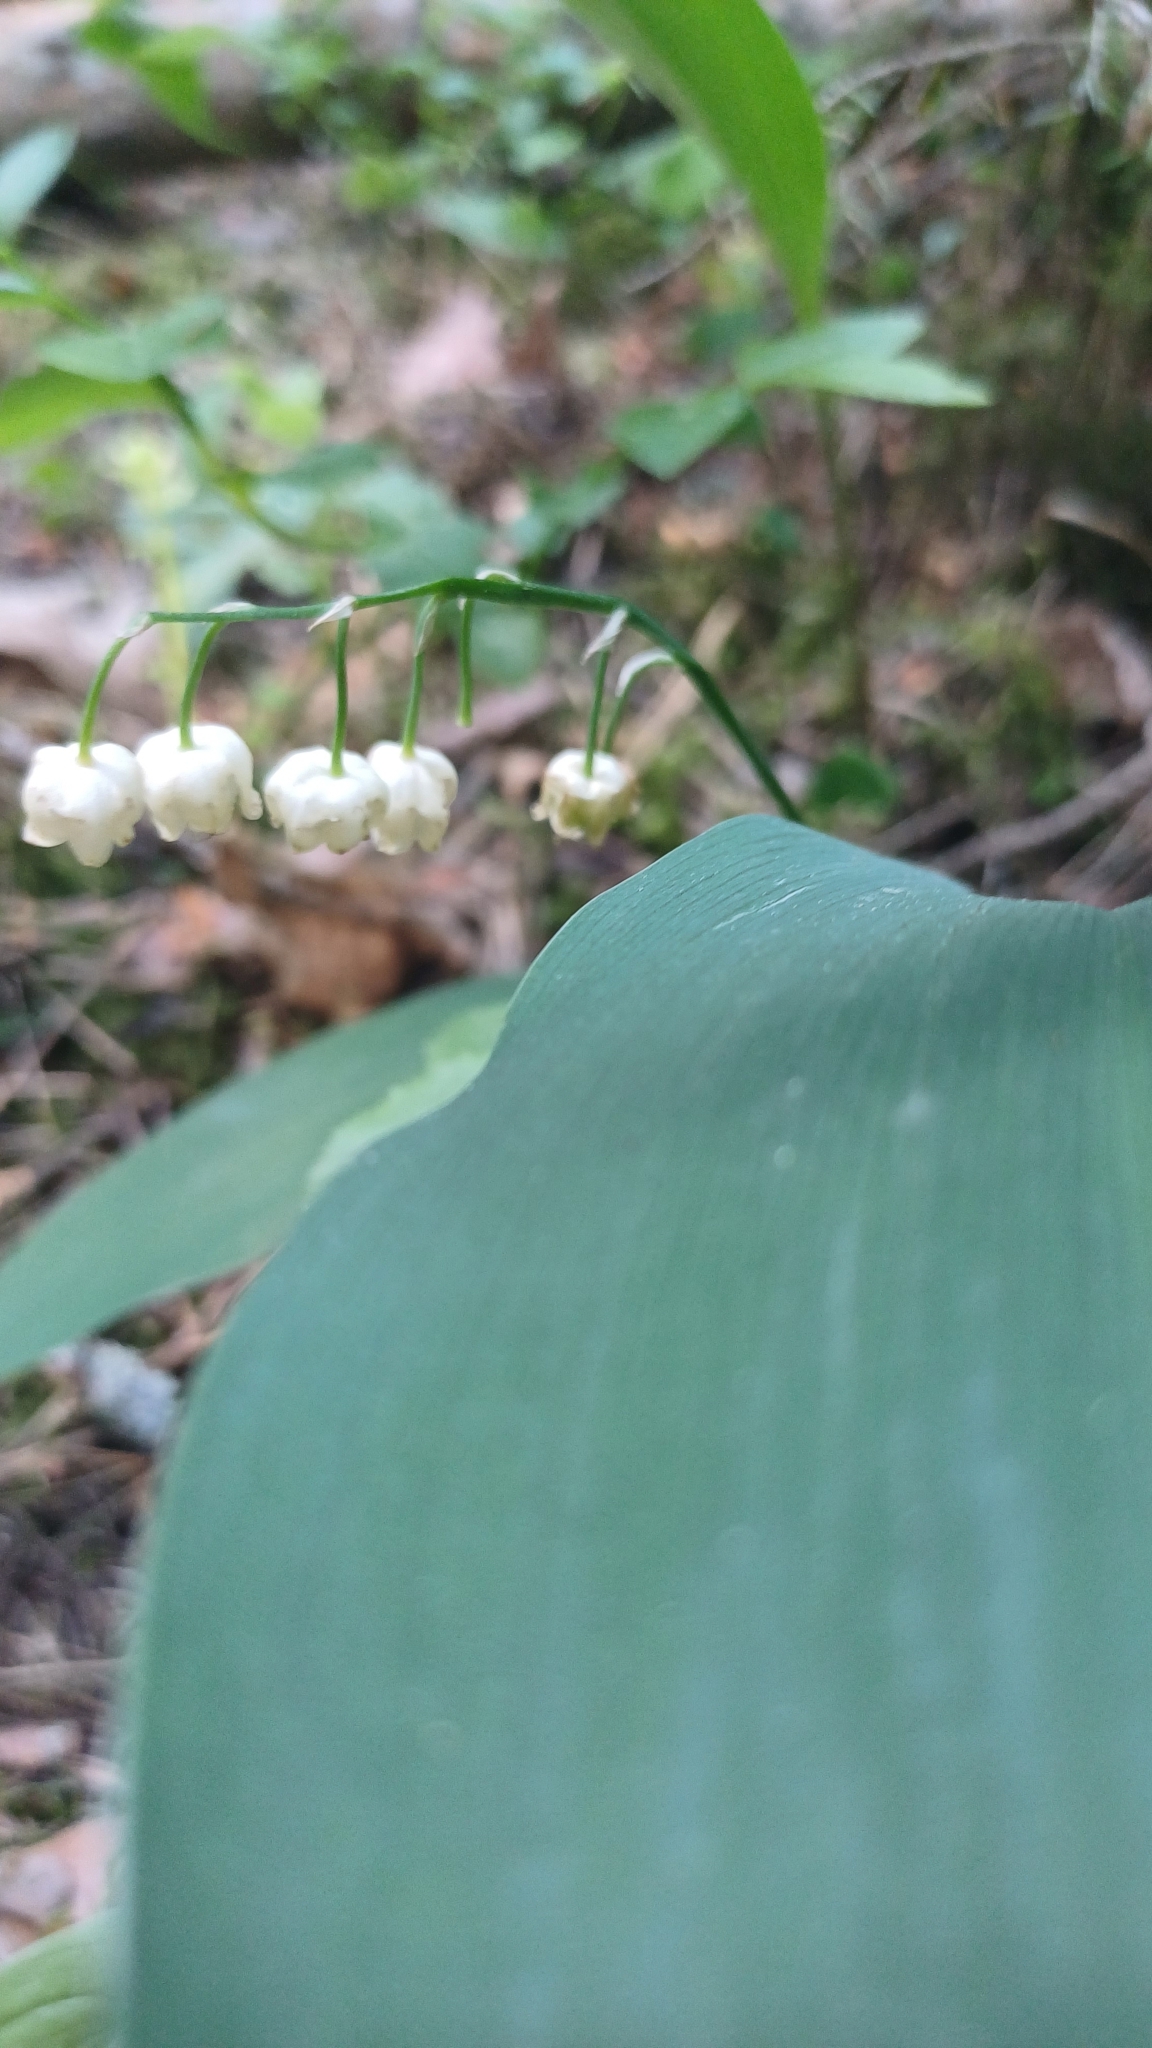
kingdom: Plantae
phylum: Tracheophyta
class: Liliopsida
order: Asparagales
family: Asparagaceae
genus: Convallaria
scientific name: Convallaria majalis
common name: Lily-of-the-valley
